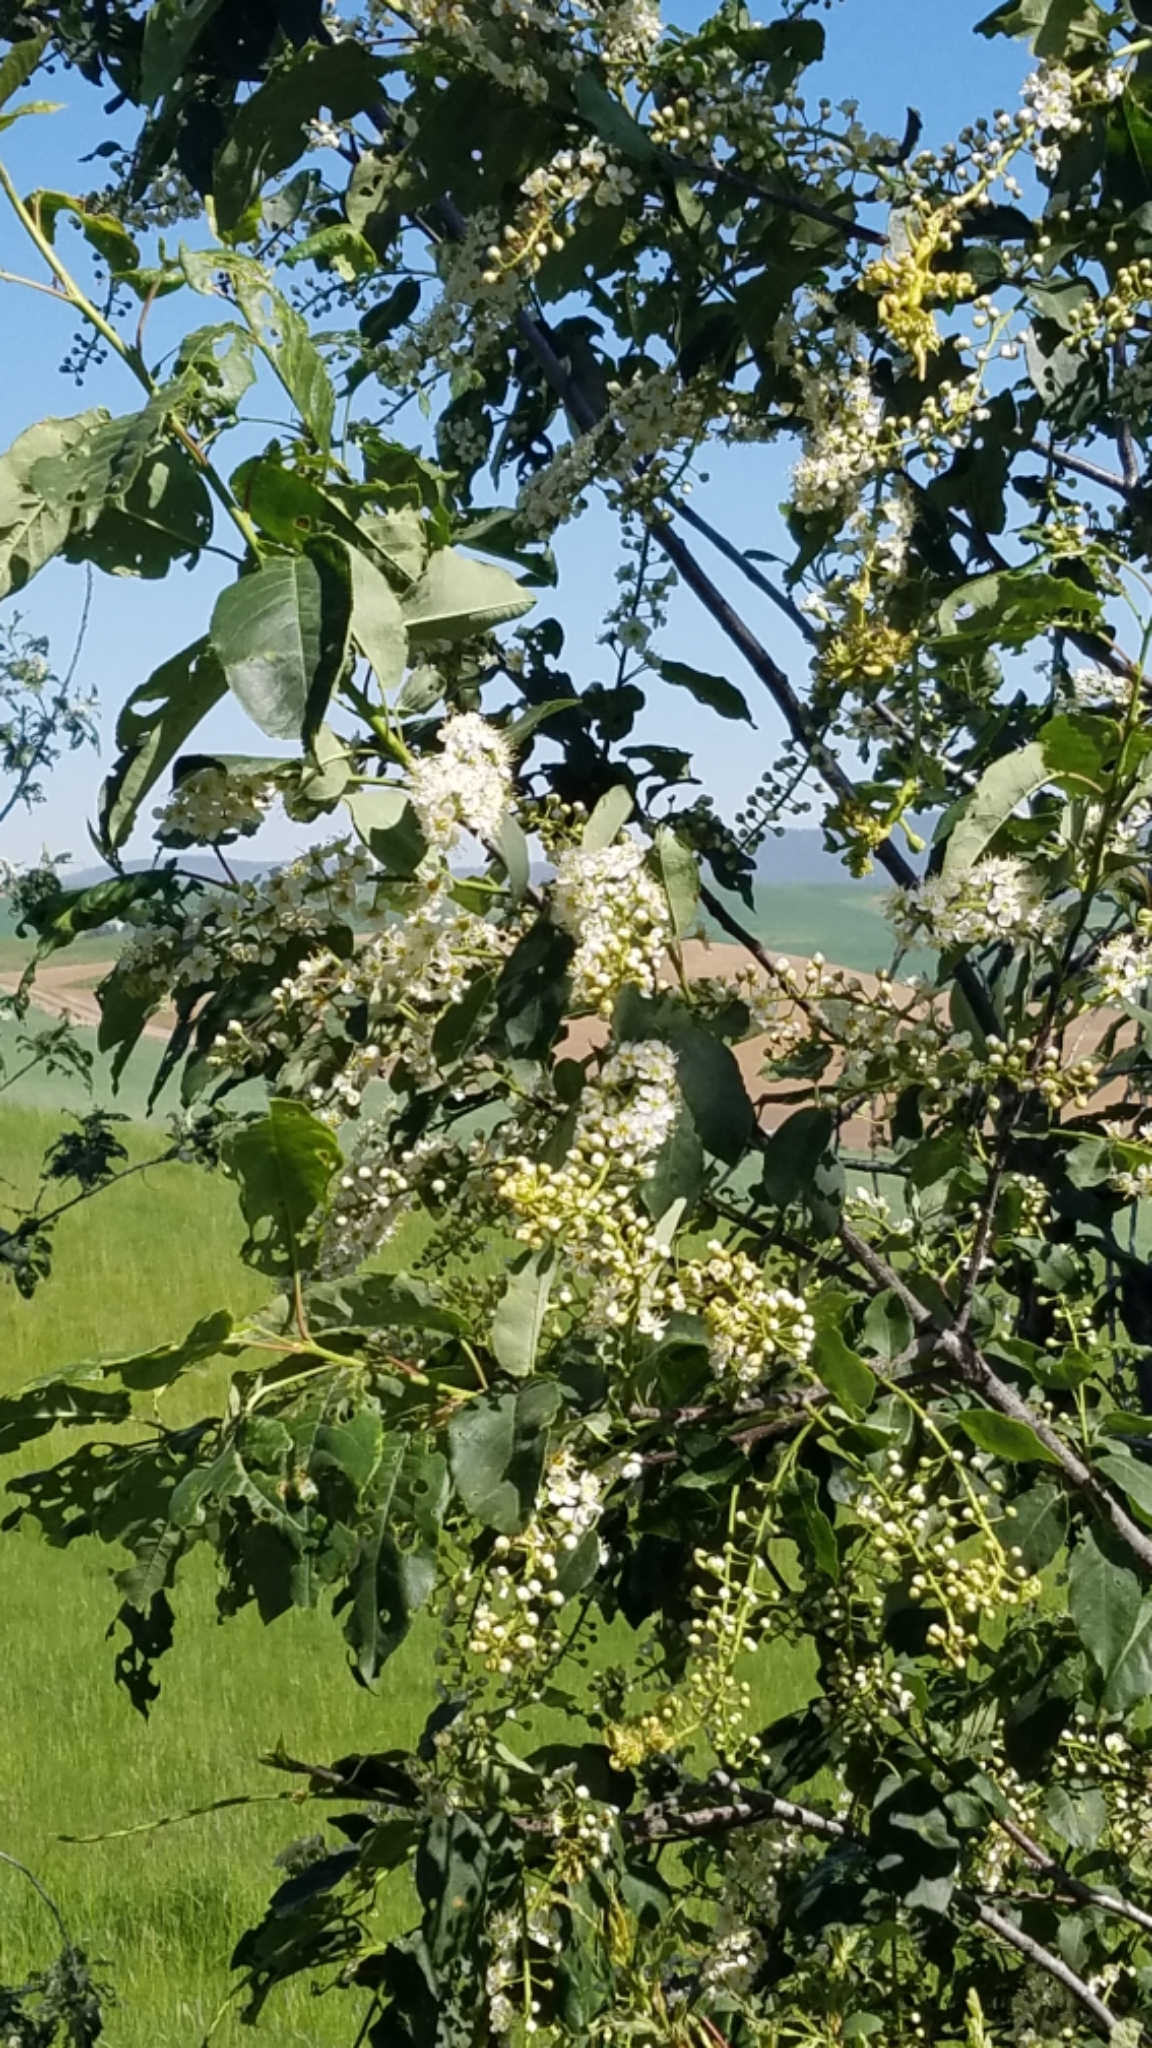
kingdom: Plantae
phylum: Tracheophyta
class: Magnoliopsida
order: Rosales
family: Rosaceae
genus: Prunus
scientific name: Prunus virginiana
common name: Chokecherry
